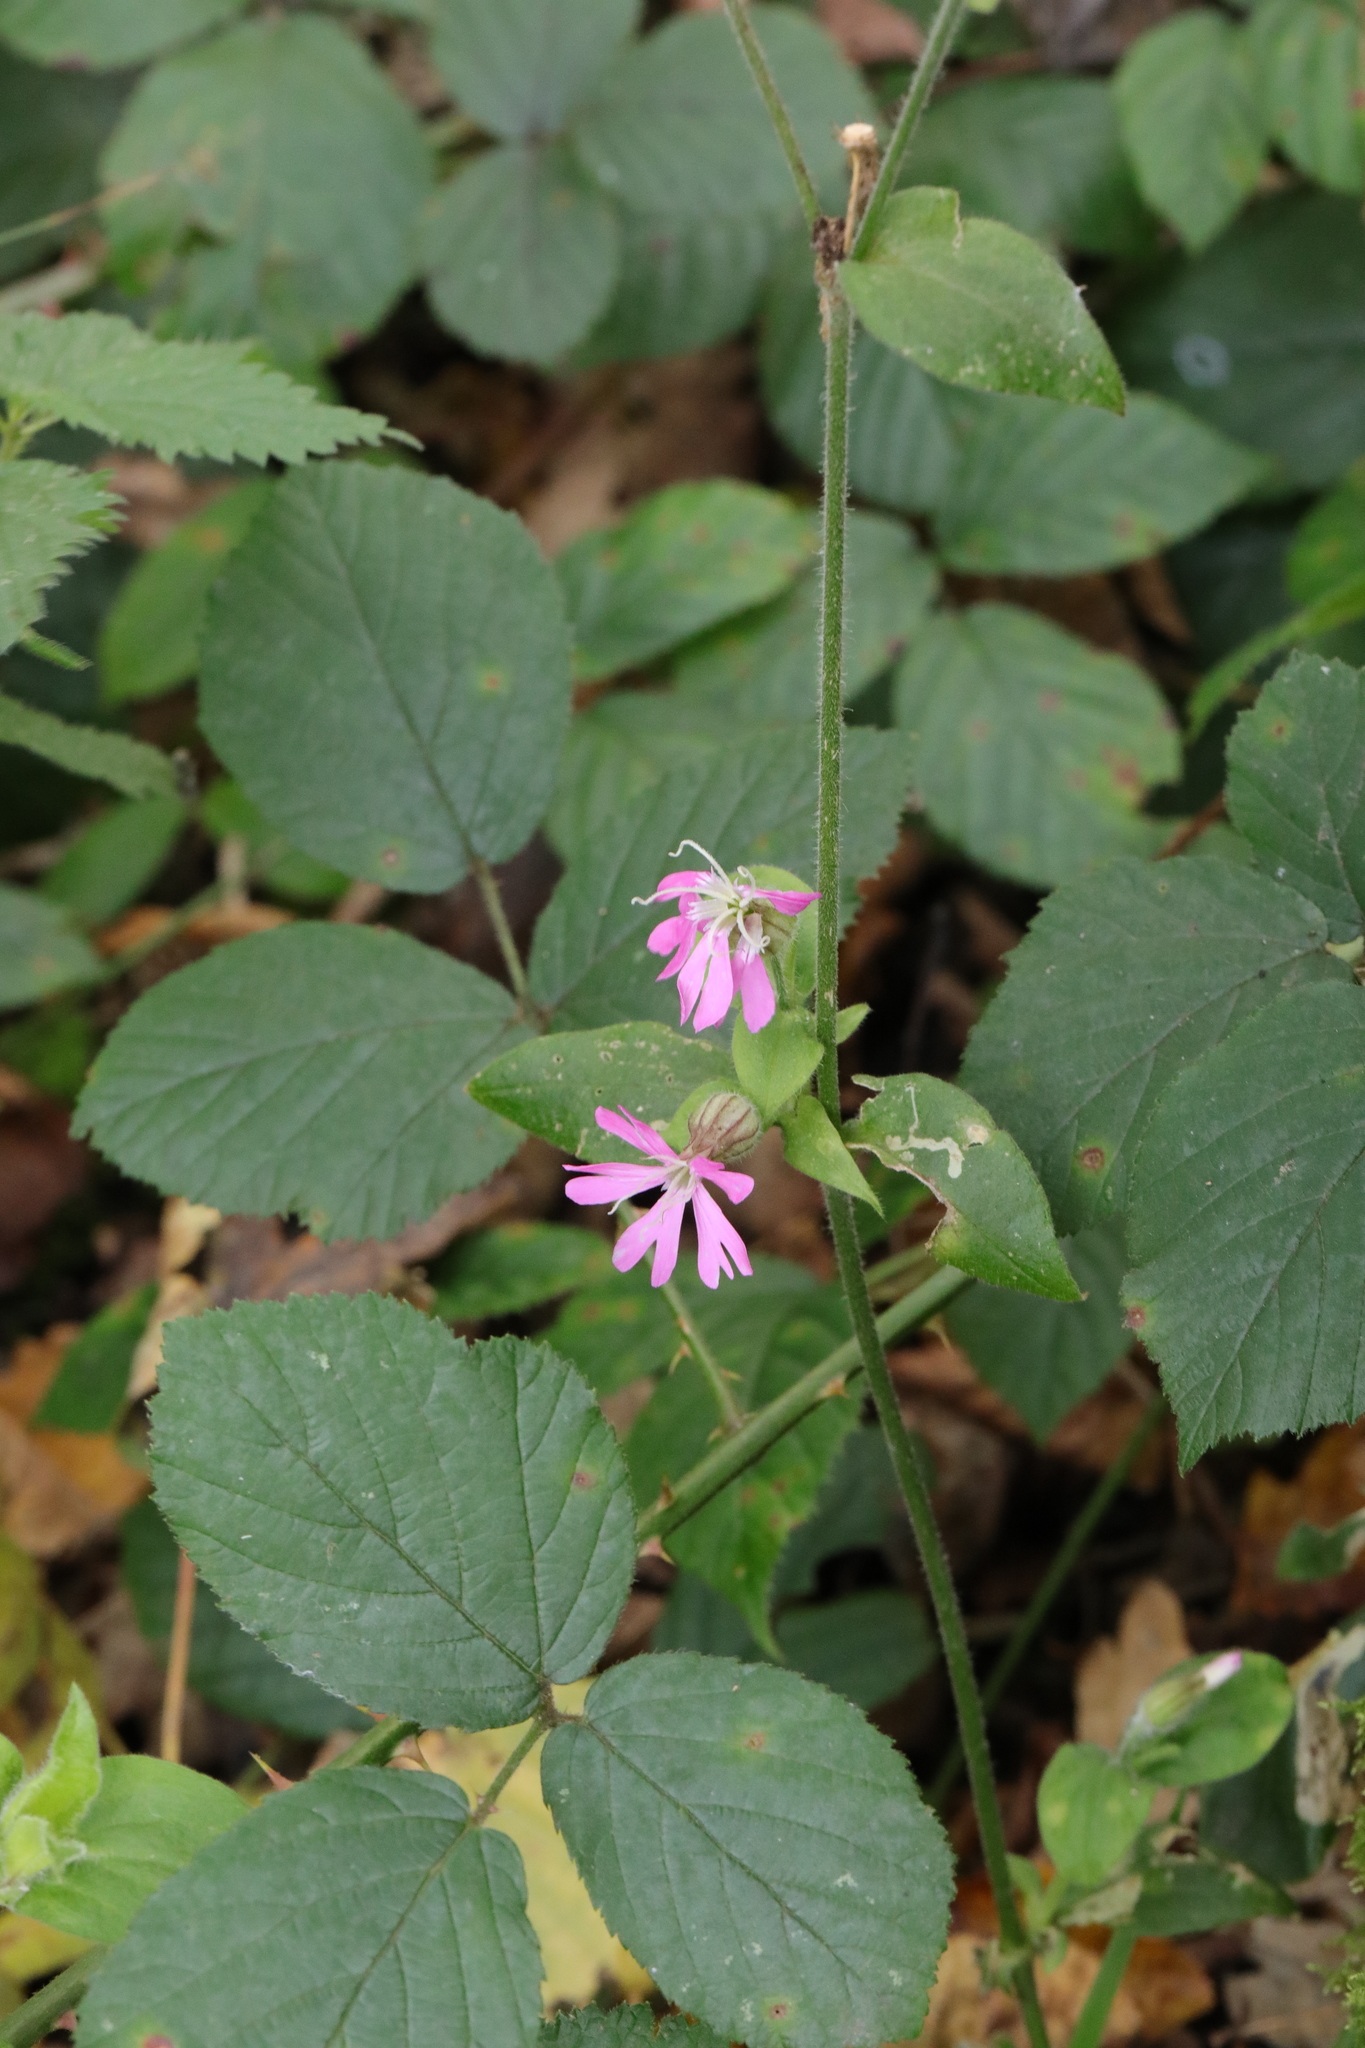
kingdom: Plantae
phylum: Tracheophyta
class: Magnoliopsida
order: Caryophyllales
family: Caryophyllaceae
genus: Silene
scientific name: Silene dioica
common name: Red campion
